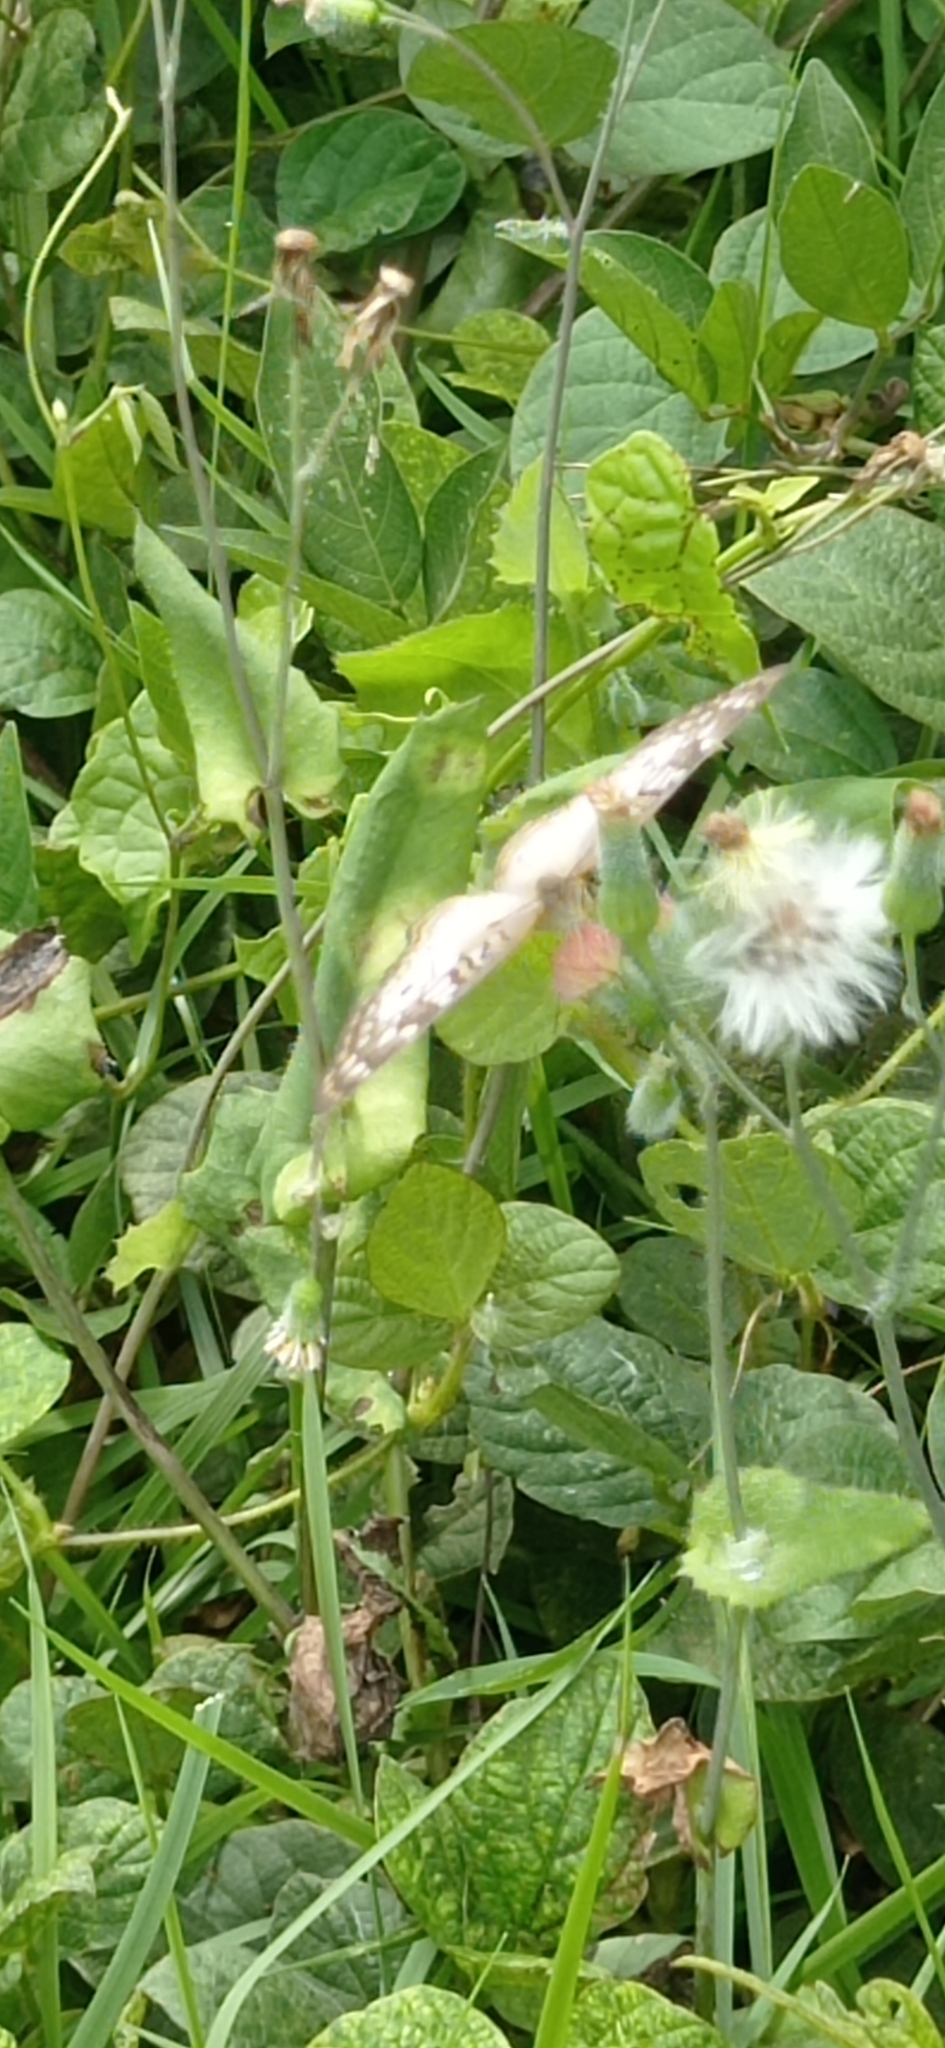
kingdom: Animalia
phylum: Arthropoda
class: Insecta
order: Lepidoptera
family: Nymphalidae
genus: Anartia
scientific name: Anartia jatrophae
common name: White peacock
